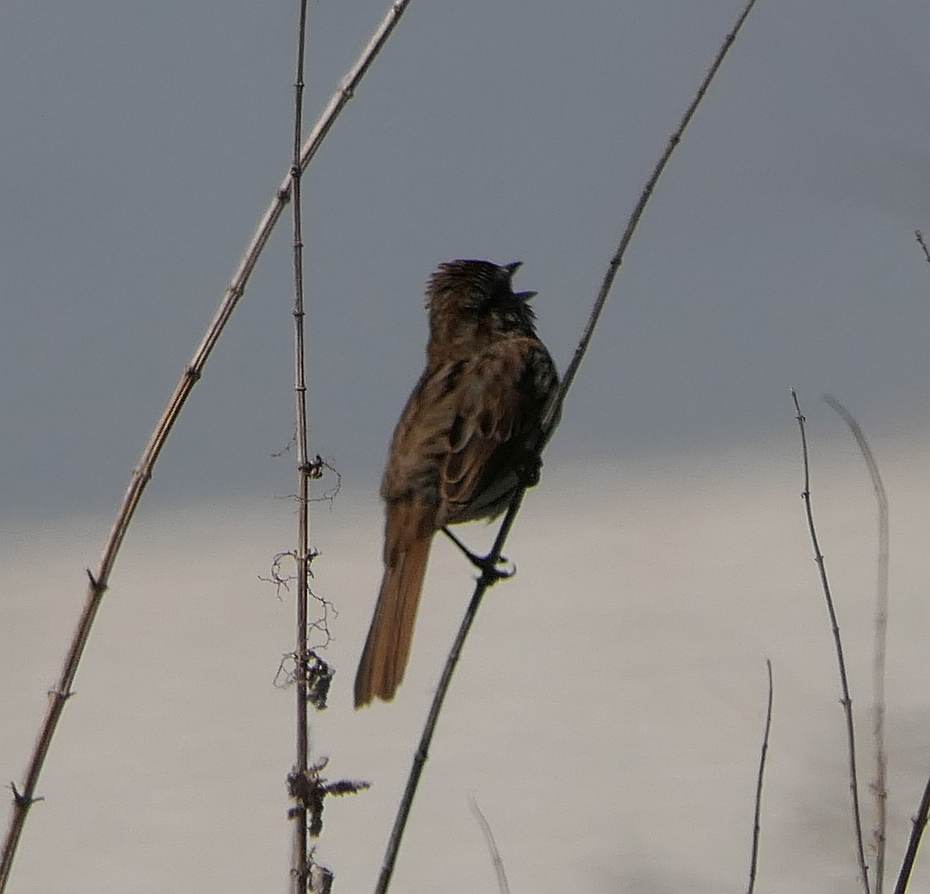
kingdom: Animalia
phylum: Chordata
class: Aves
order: Passeriformes
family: Passerellidae
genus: Melospiza
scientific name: Melospiza melodia
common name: Song sparrow
